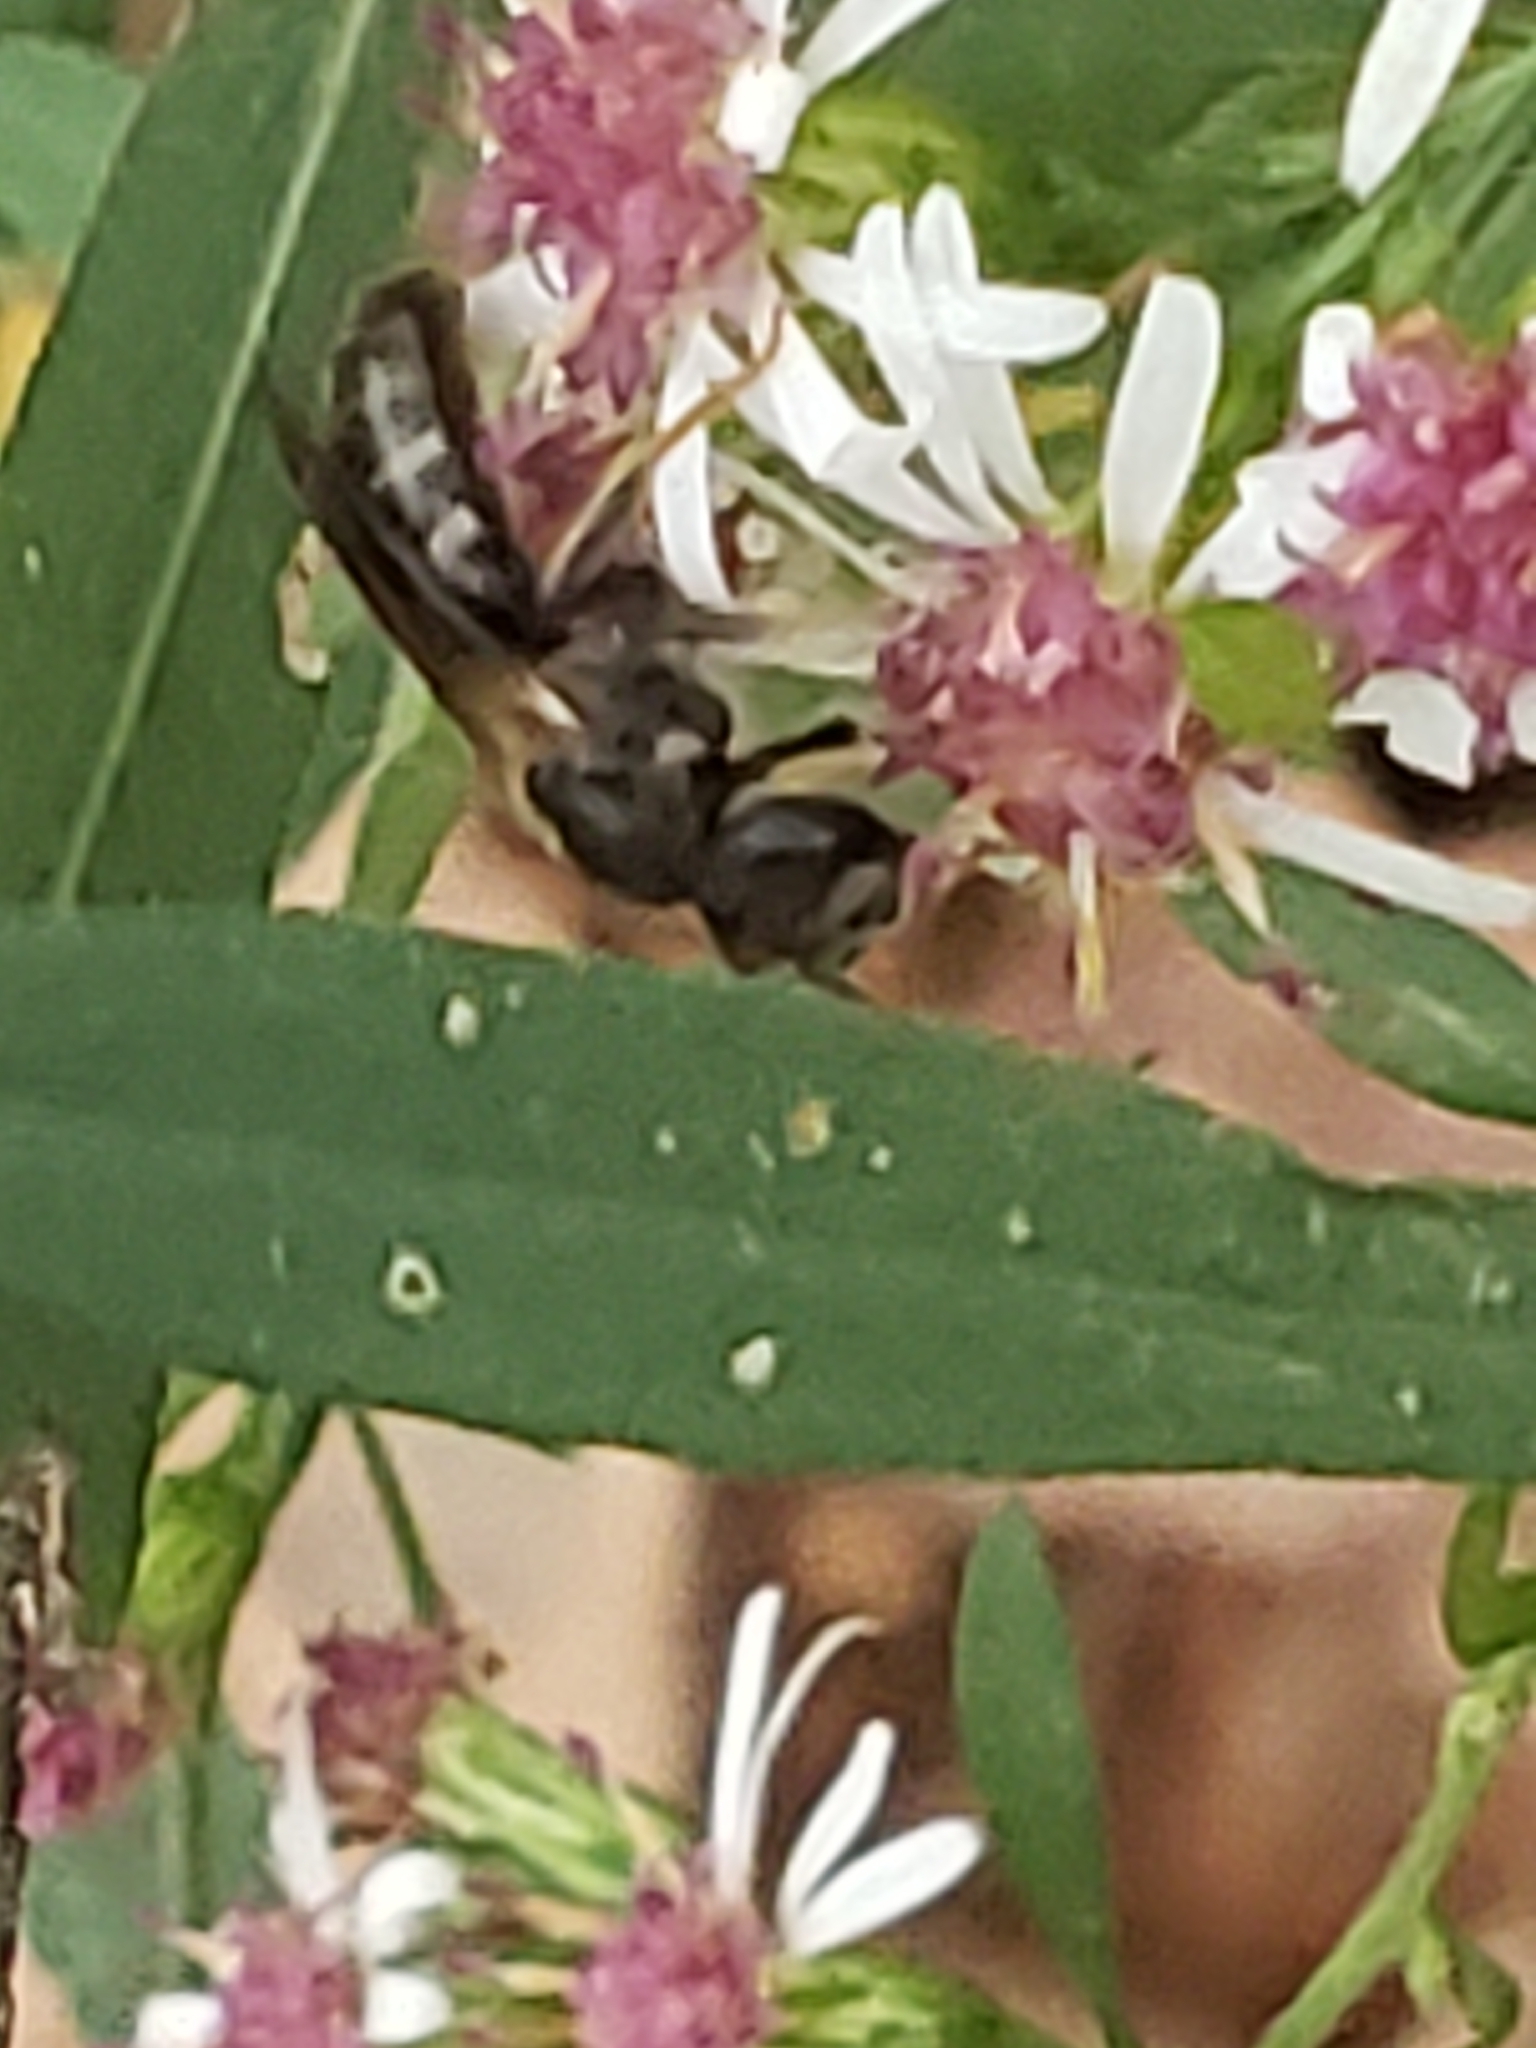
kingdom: Animalia
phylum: Arthropoda
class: Insecta
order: Hymenoptera
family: Halictidae
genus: Lasioglossum
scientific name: Lasioglossum fuscipenne
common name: Brown-winged sweat bee
